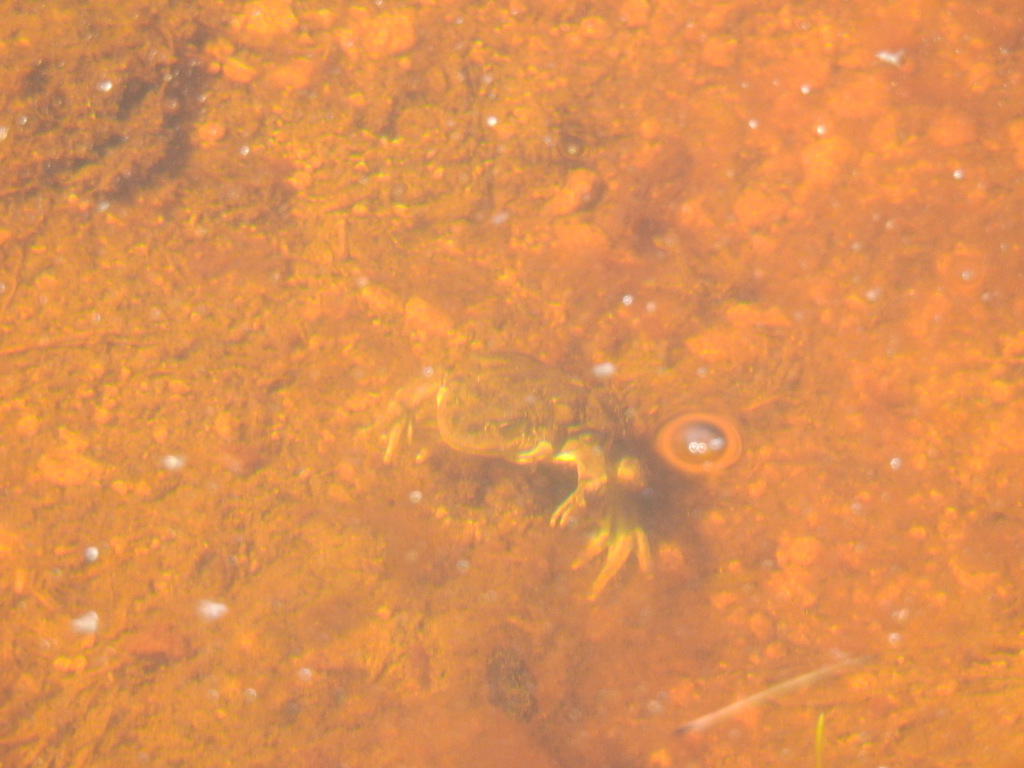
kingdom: Animalia
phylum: Chordata
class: Amphibia
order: Anura
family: Alsodidae
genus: Alsodes
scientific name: Alsodes pehuenche
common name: Pehuenche spiny-chest frog
